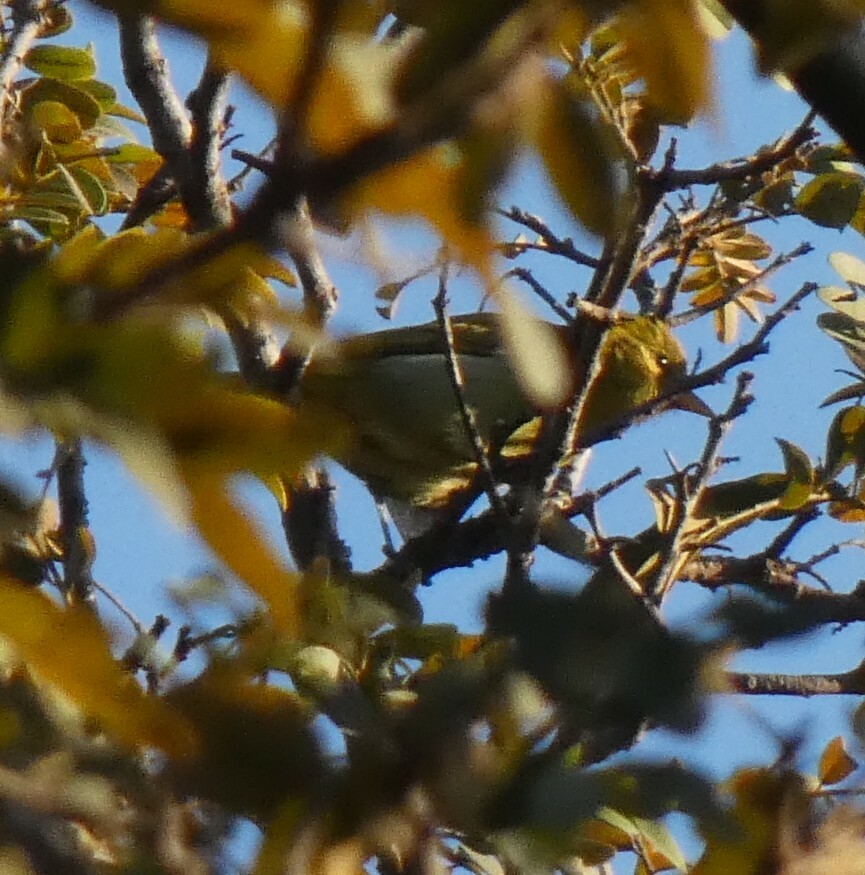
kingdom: Animalia
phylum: Chordata
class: Aves
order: Passeriformes
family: Thraupidae
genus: Hemithraupis
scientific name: Hemithraupis ruficapilla
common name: Rufous-headed tanager
